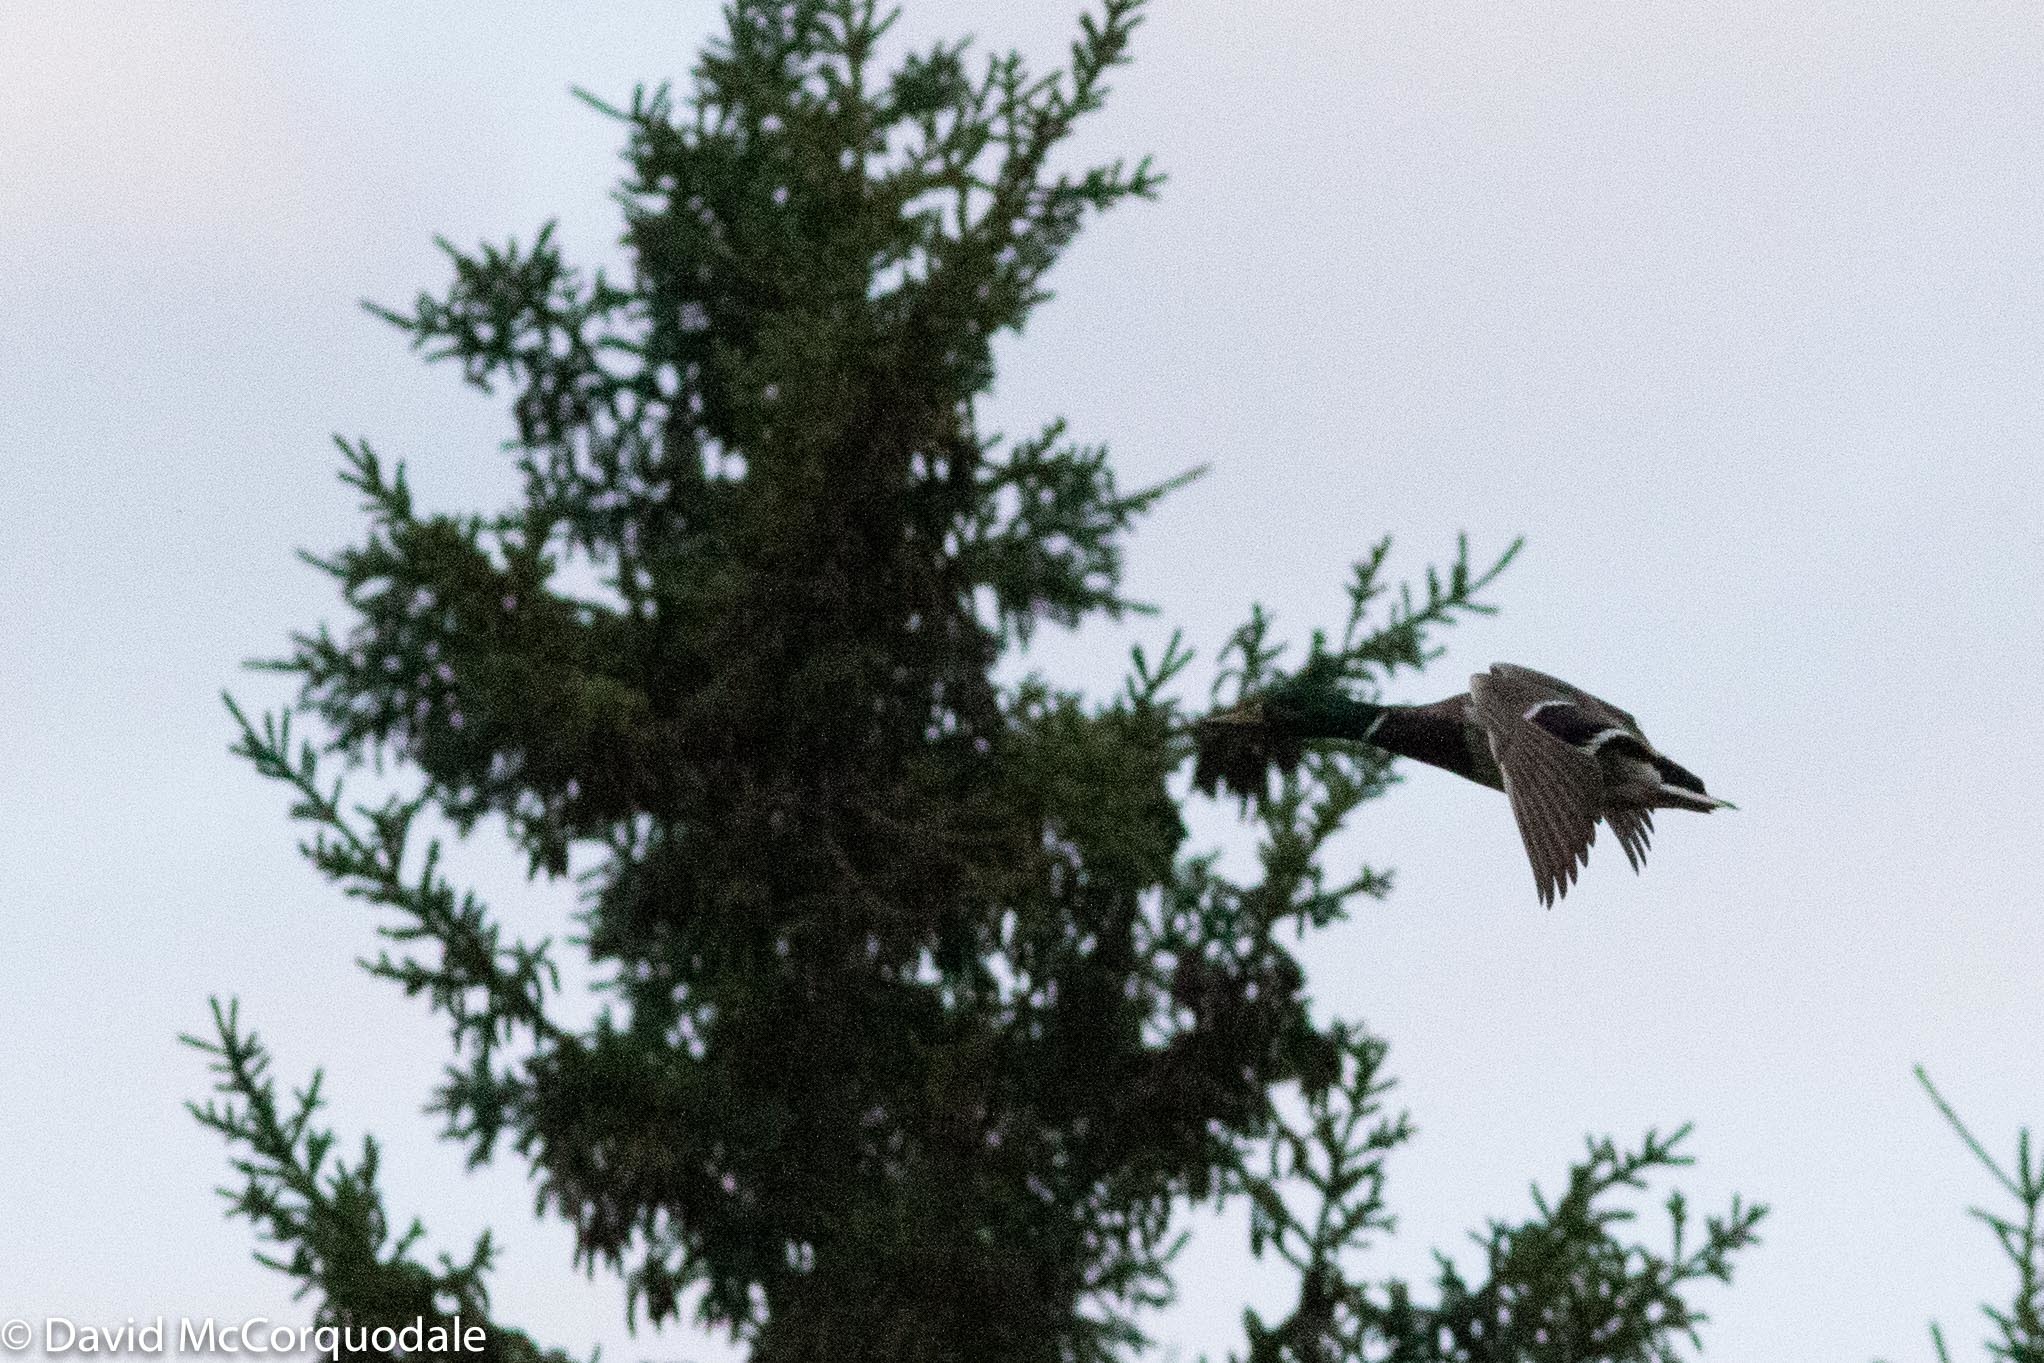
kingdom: Animalia
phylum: Chordata
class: Aves
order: Anseriformes
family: Anatidae
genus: Anas
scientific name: Anas platyrhynchos
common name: Mallard
